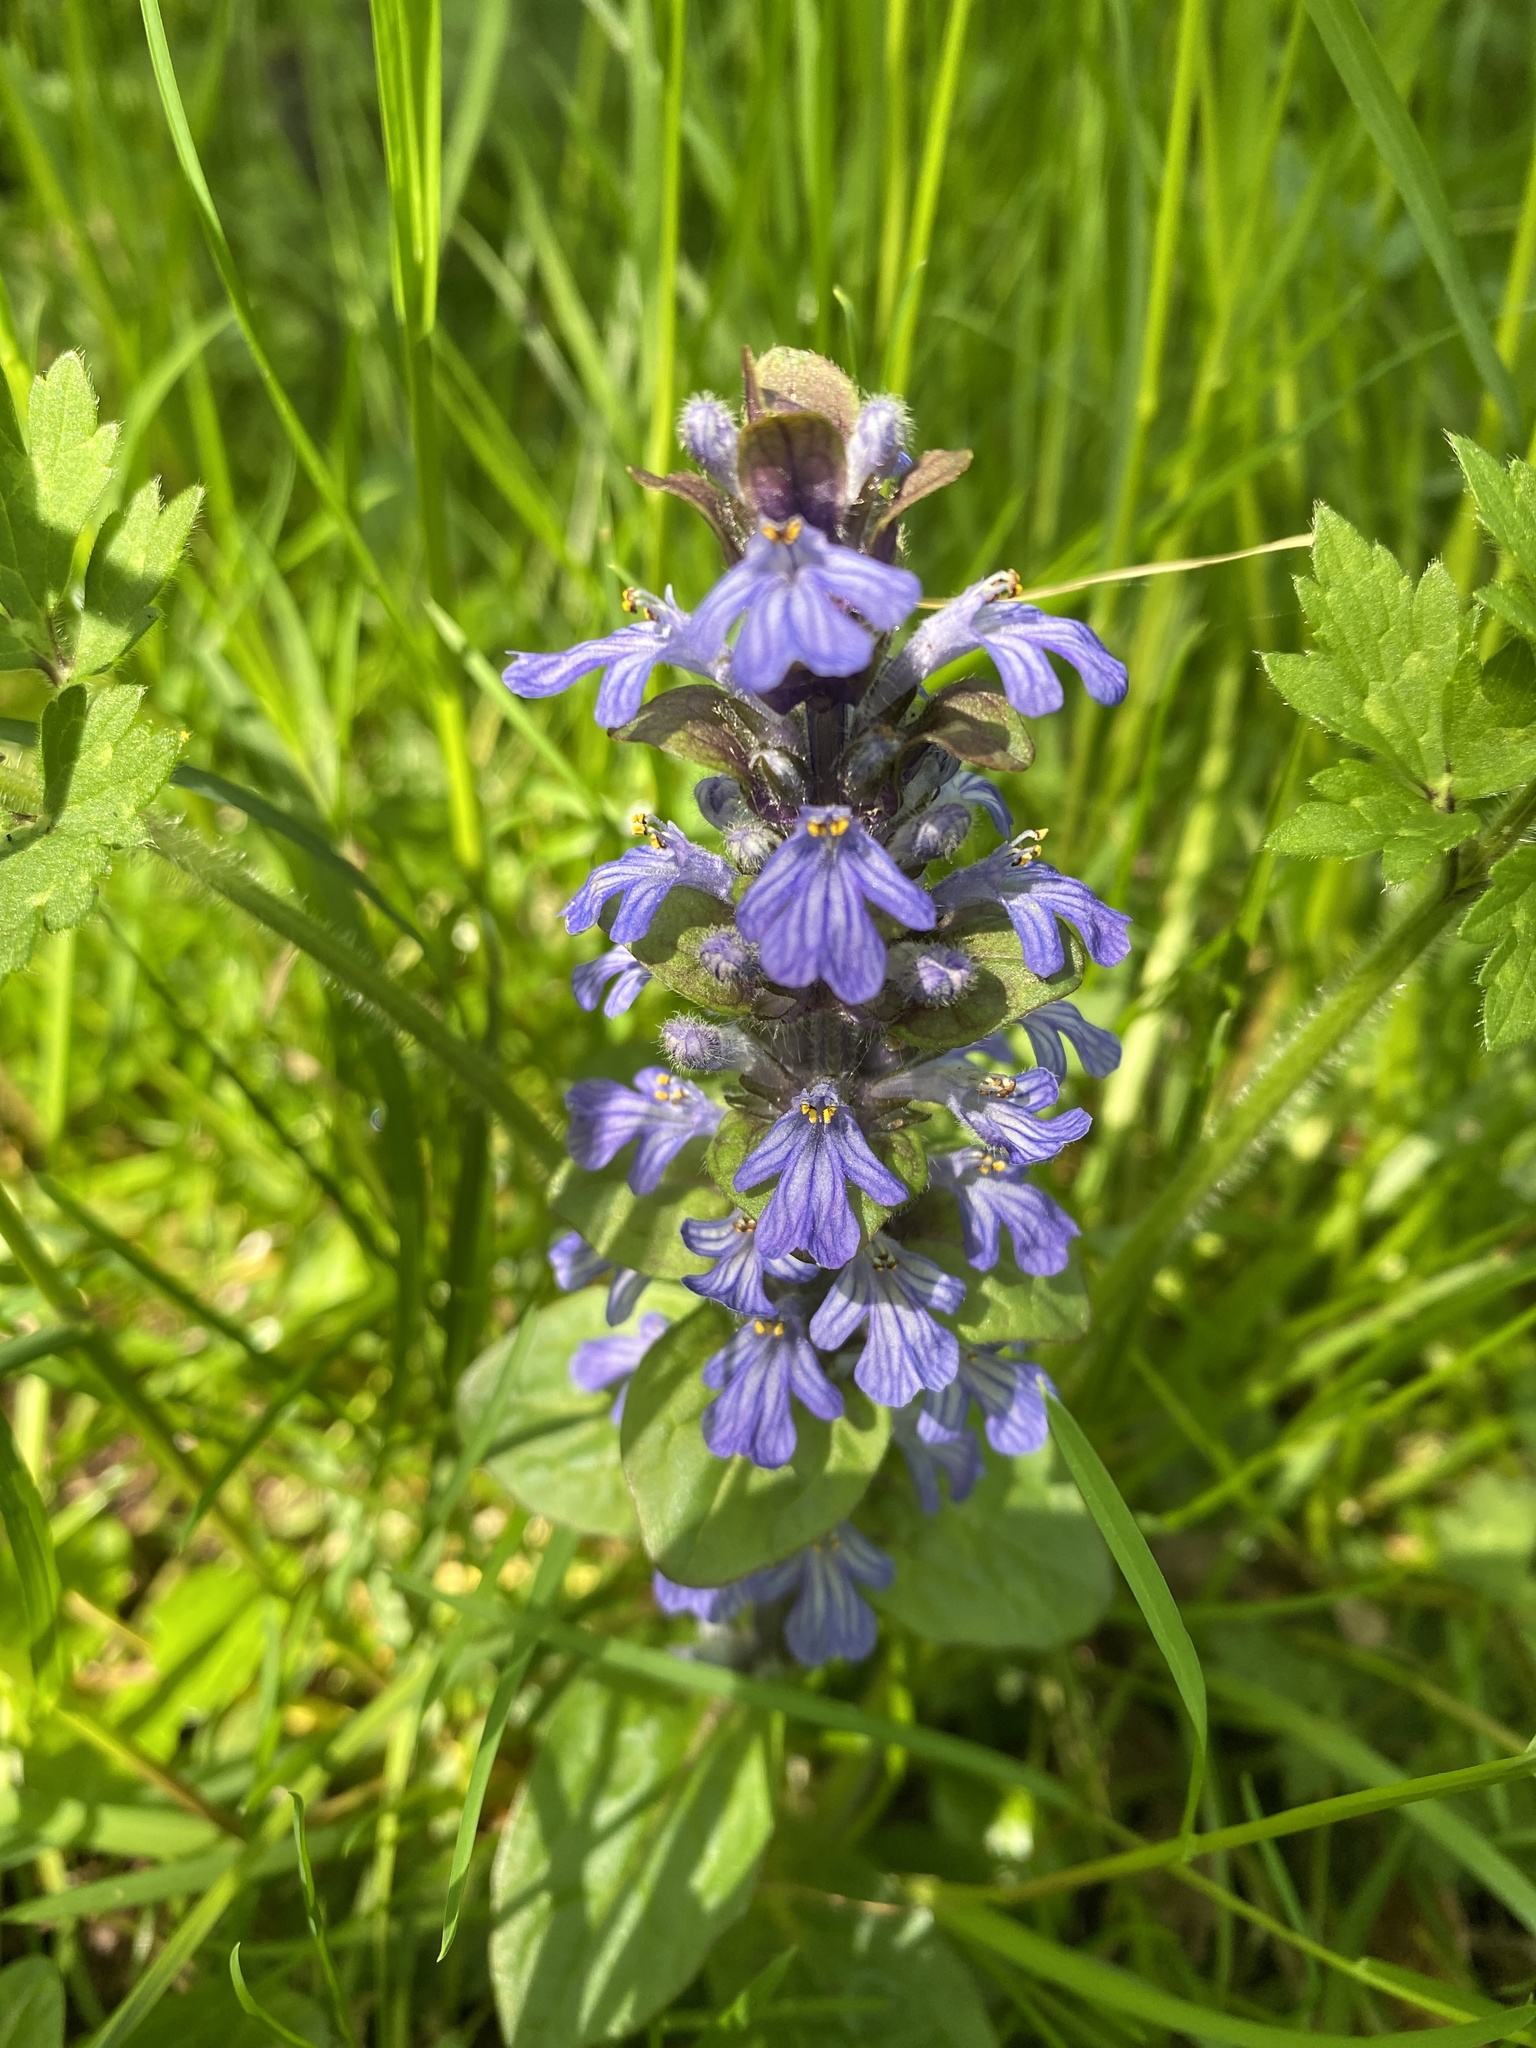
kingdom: Plantae
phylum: Tracheophyta
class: Magnoliopsida
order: Lamiales
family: Lamiaceae
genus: Ajuga
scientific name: Ajuga reptans
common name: Bugle
